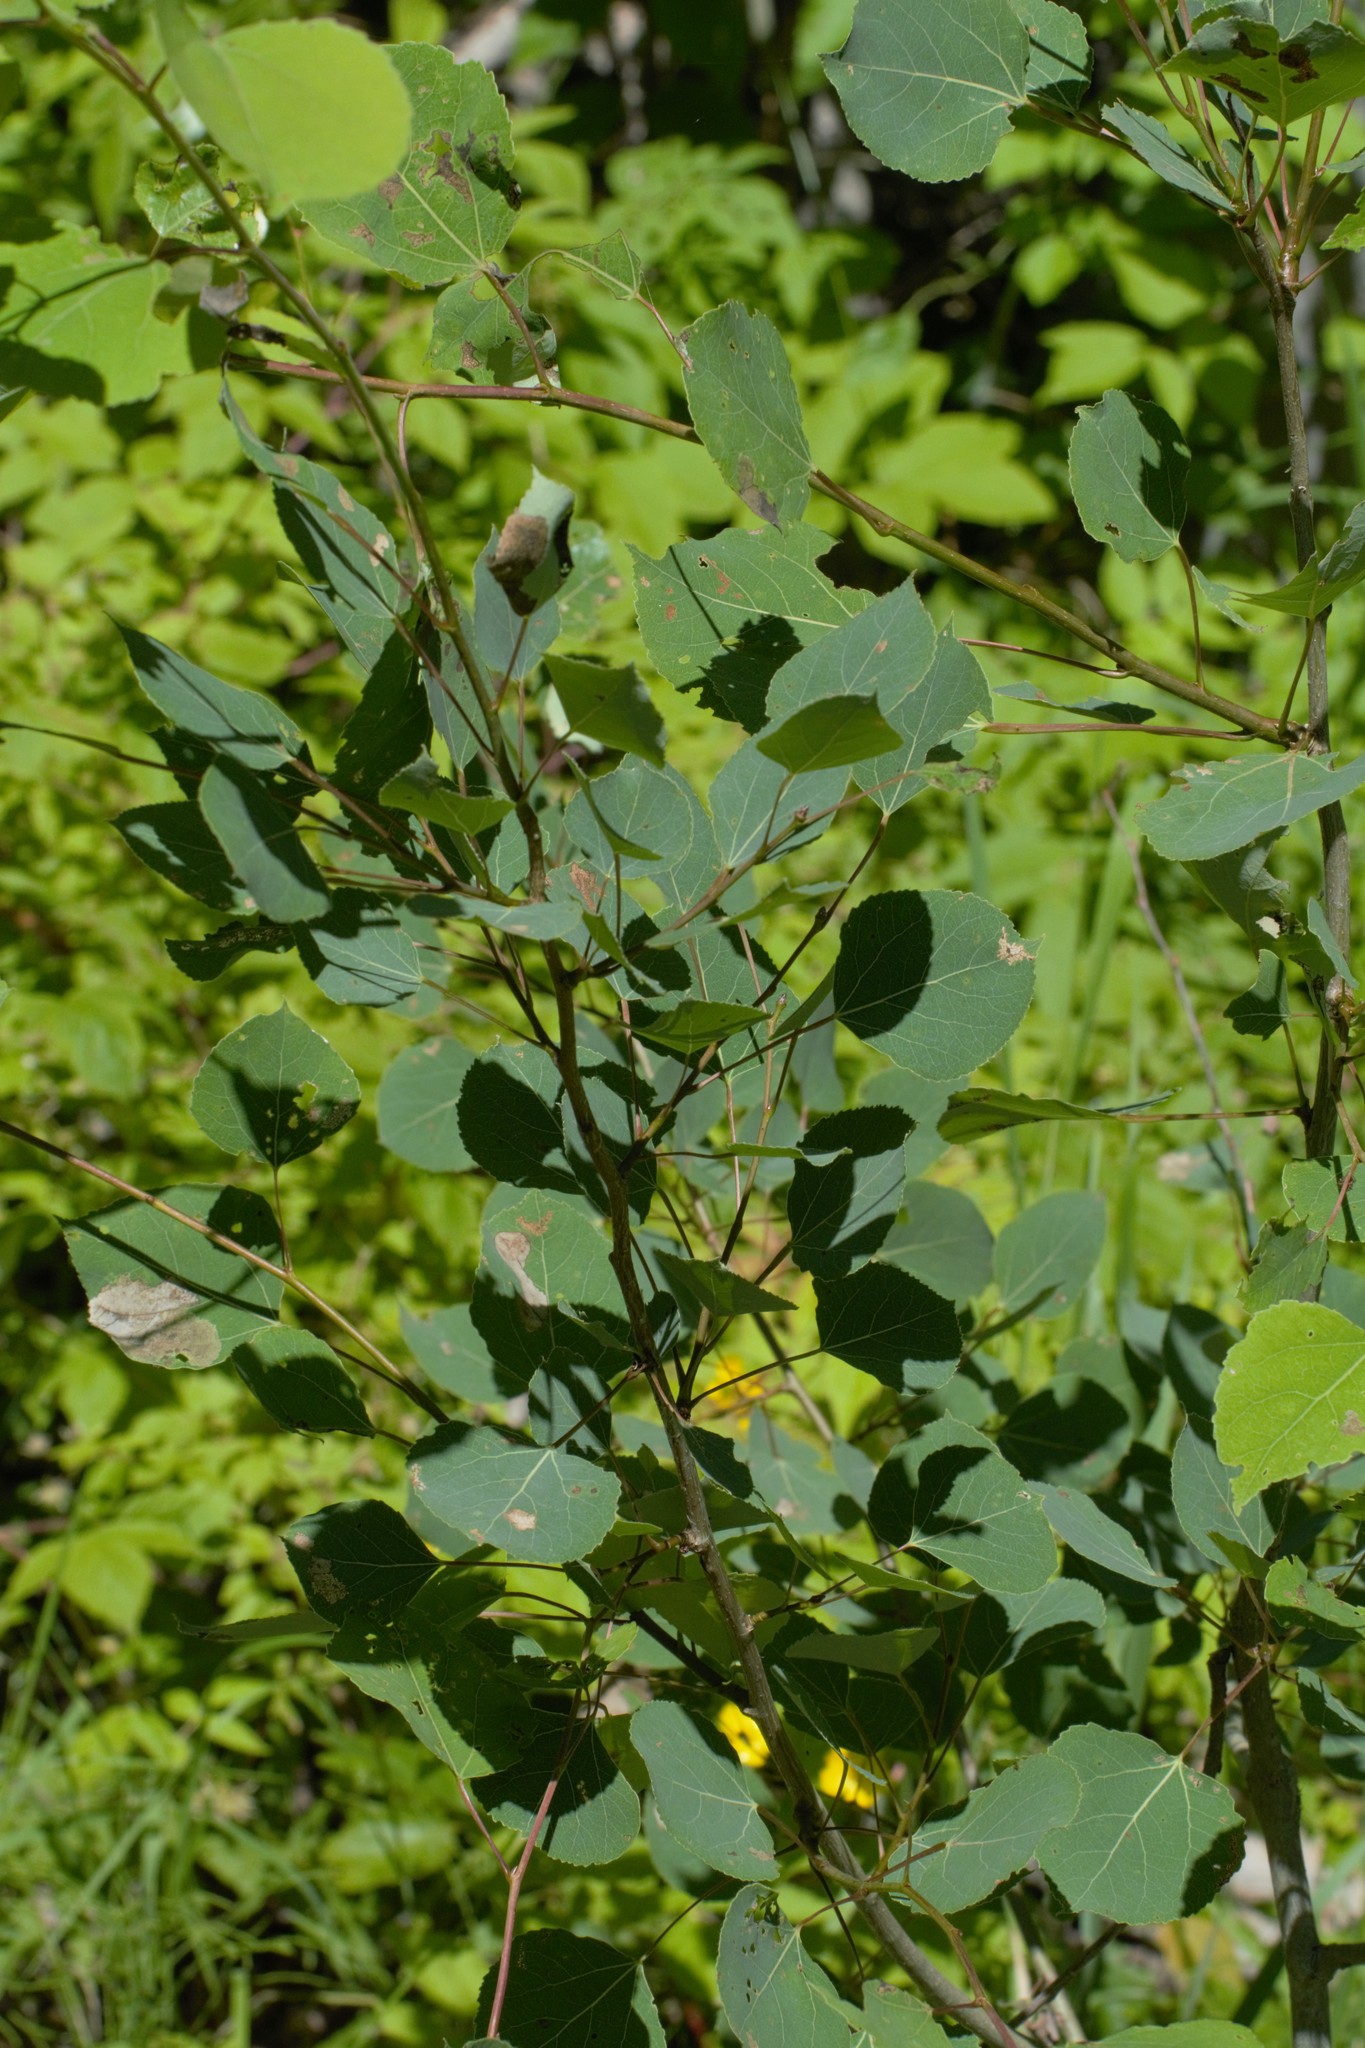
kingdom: Plantae
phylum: Tracheophyta
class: Magnoliopsida
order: Malpighiales
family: Salicaceae
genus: Populus
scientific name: Populus tremuloides
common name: Quaking aspen
